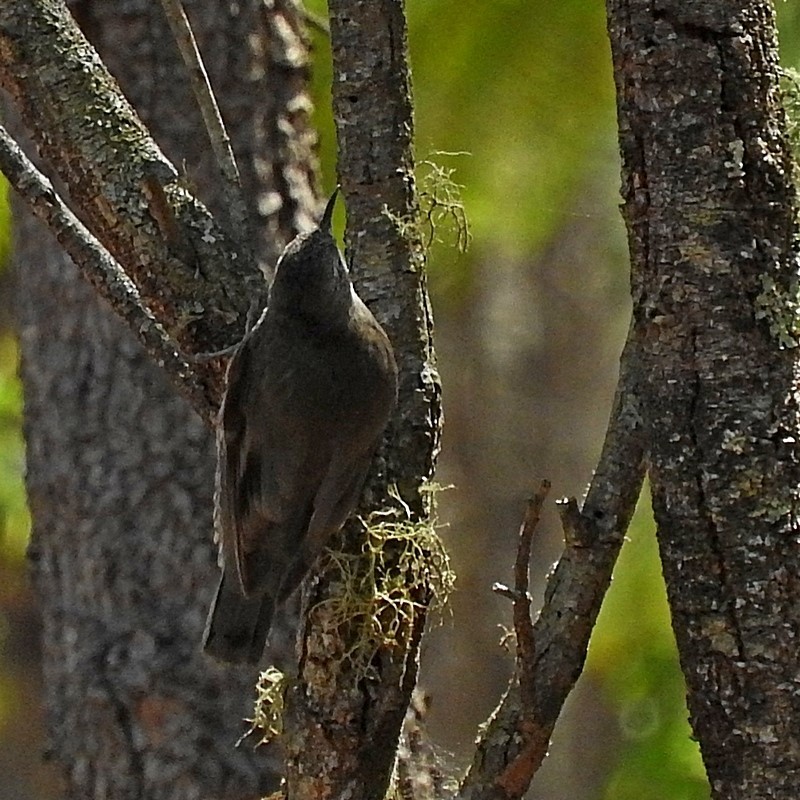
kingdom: Animalia
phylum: Chordata
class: Aves
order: Passeriformes
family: Climacteridae
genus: Cormobates
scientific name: Cormobates leucophaea
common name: White-throated treecreeper
